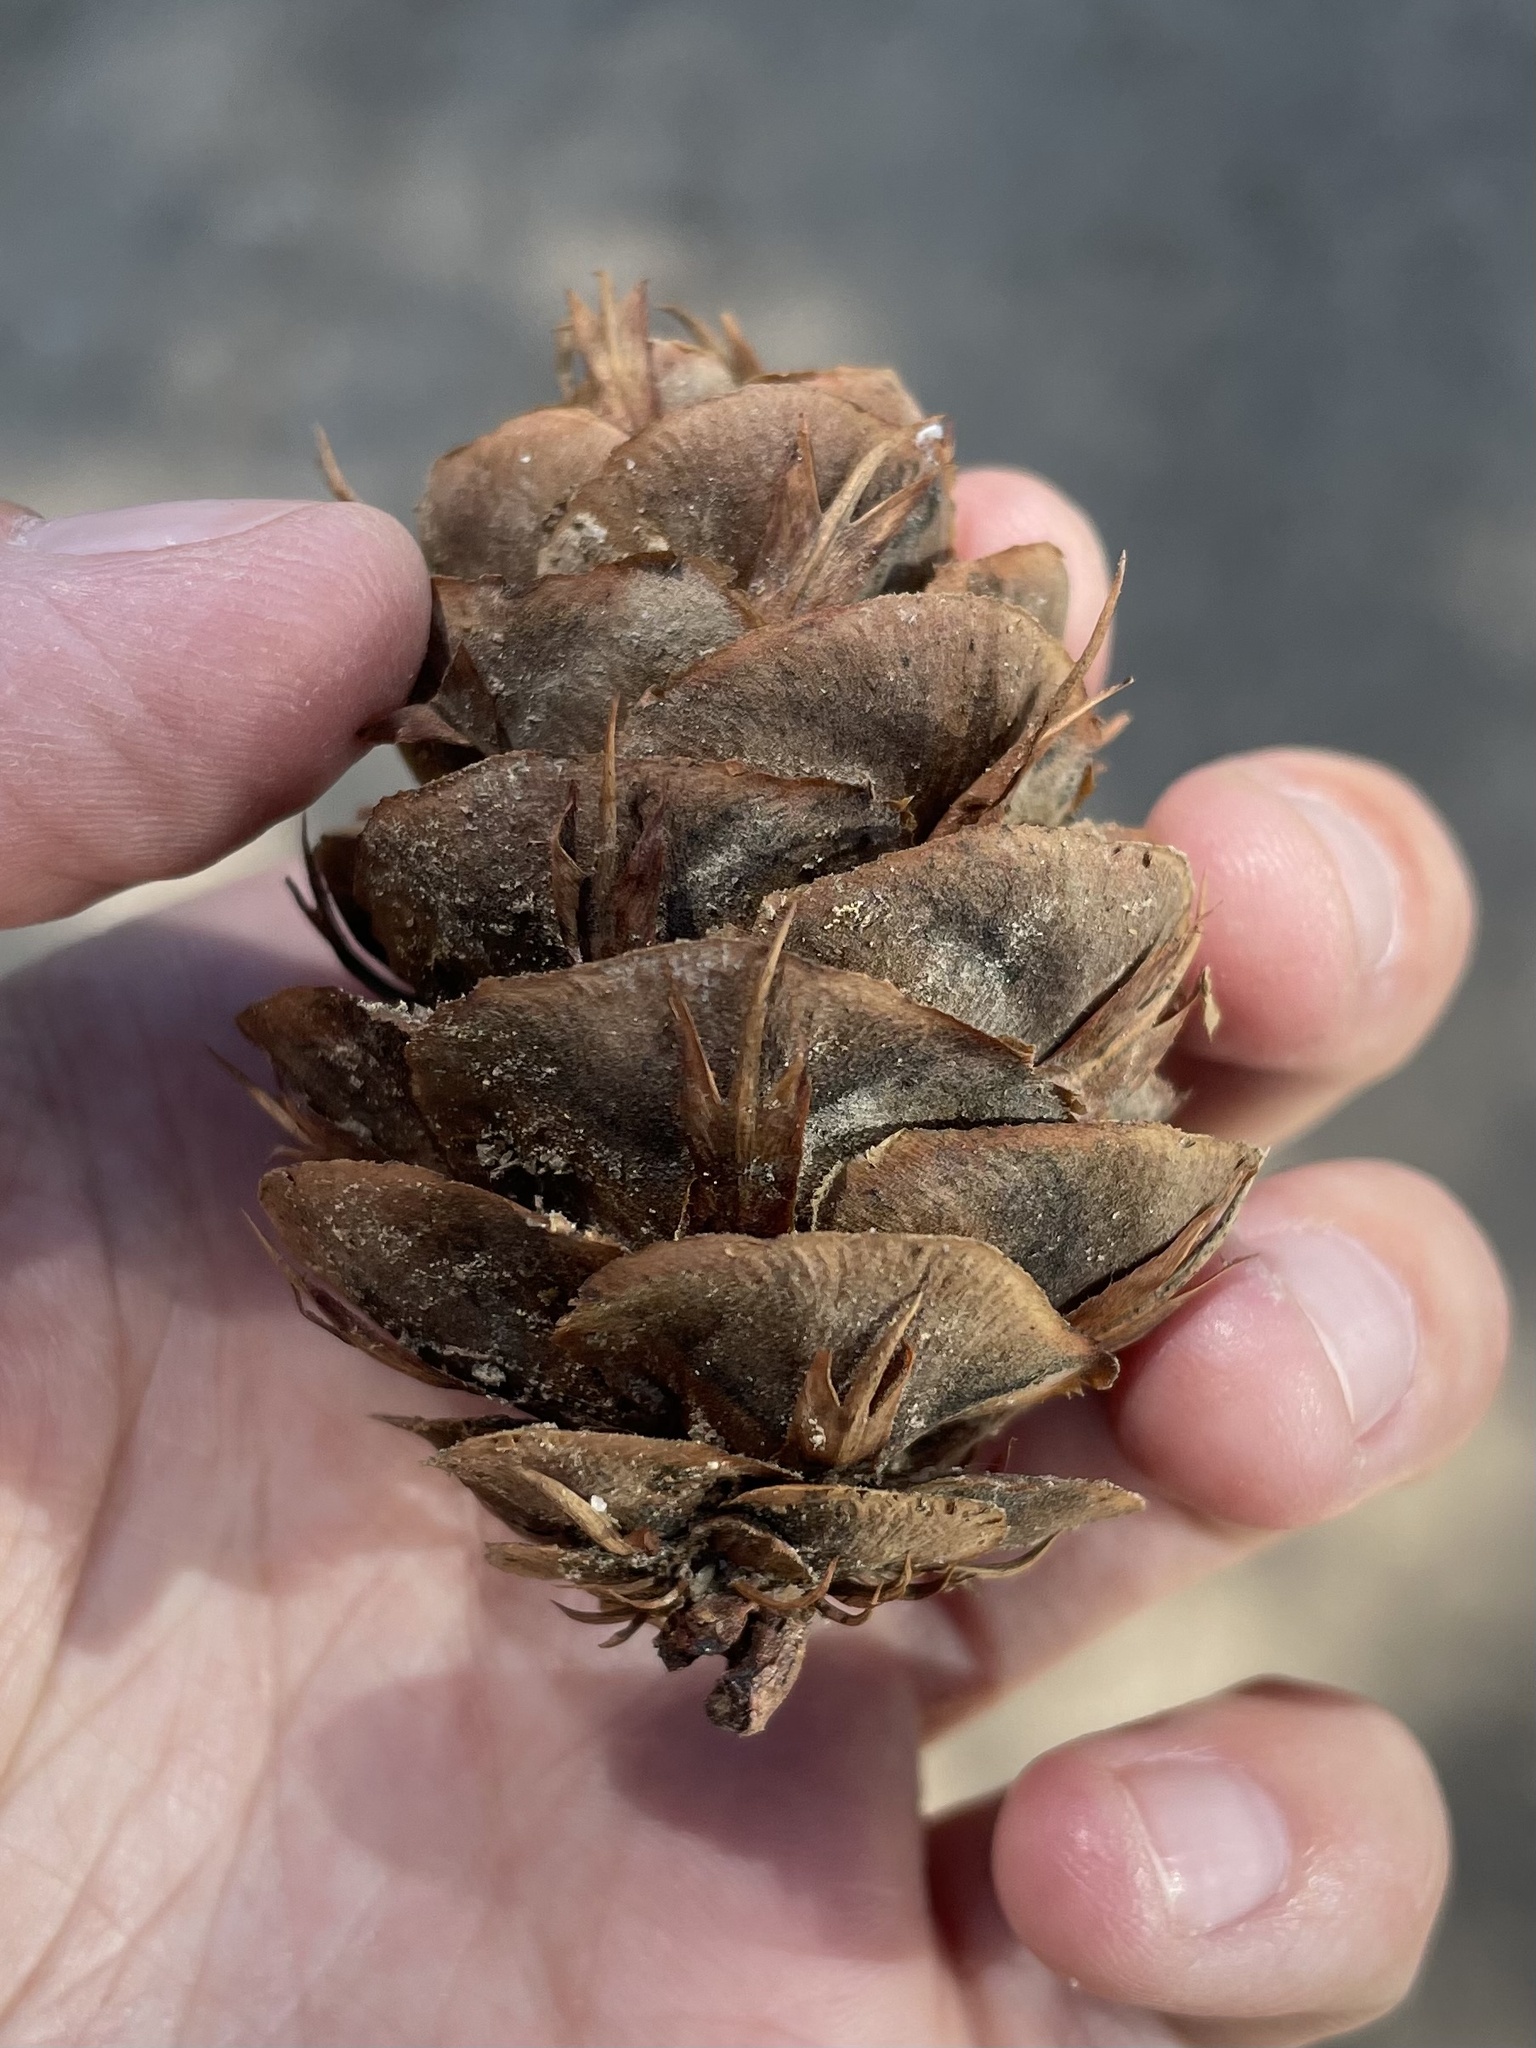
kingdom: Plantae
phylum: Tracheophyta
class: Pinopsida
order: Pinales
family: Pinaceae
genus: Pseudotsuga
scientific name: Pseudotsuga menziesii
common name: Douglas fir
